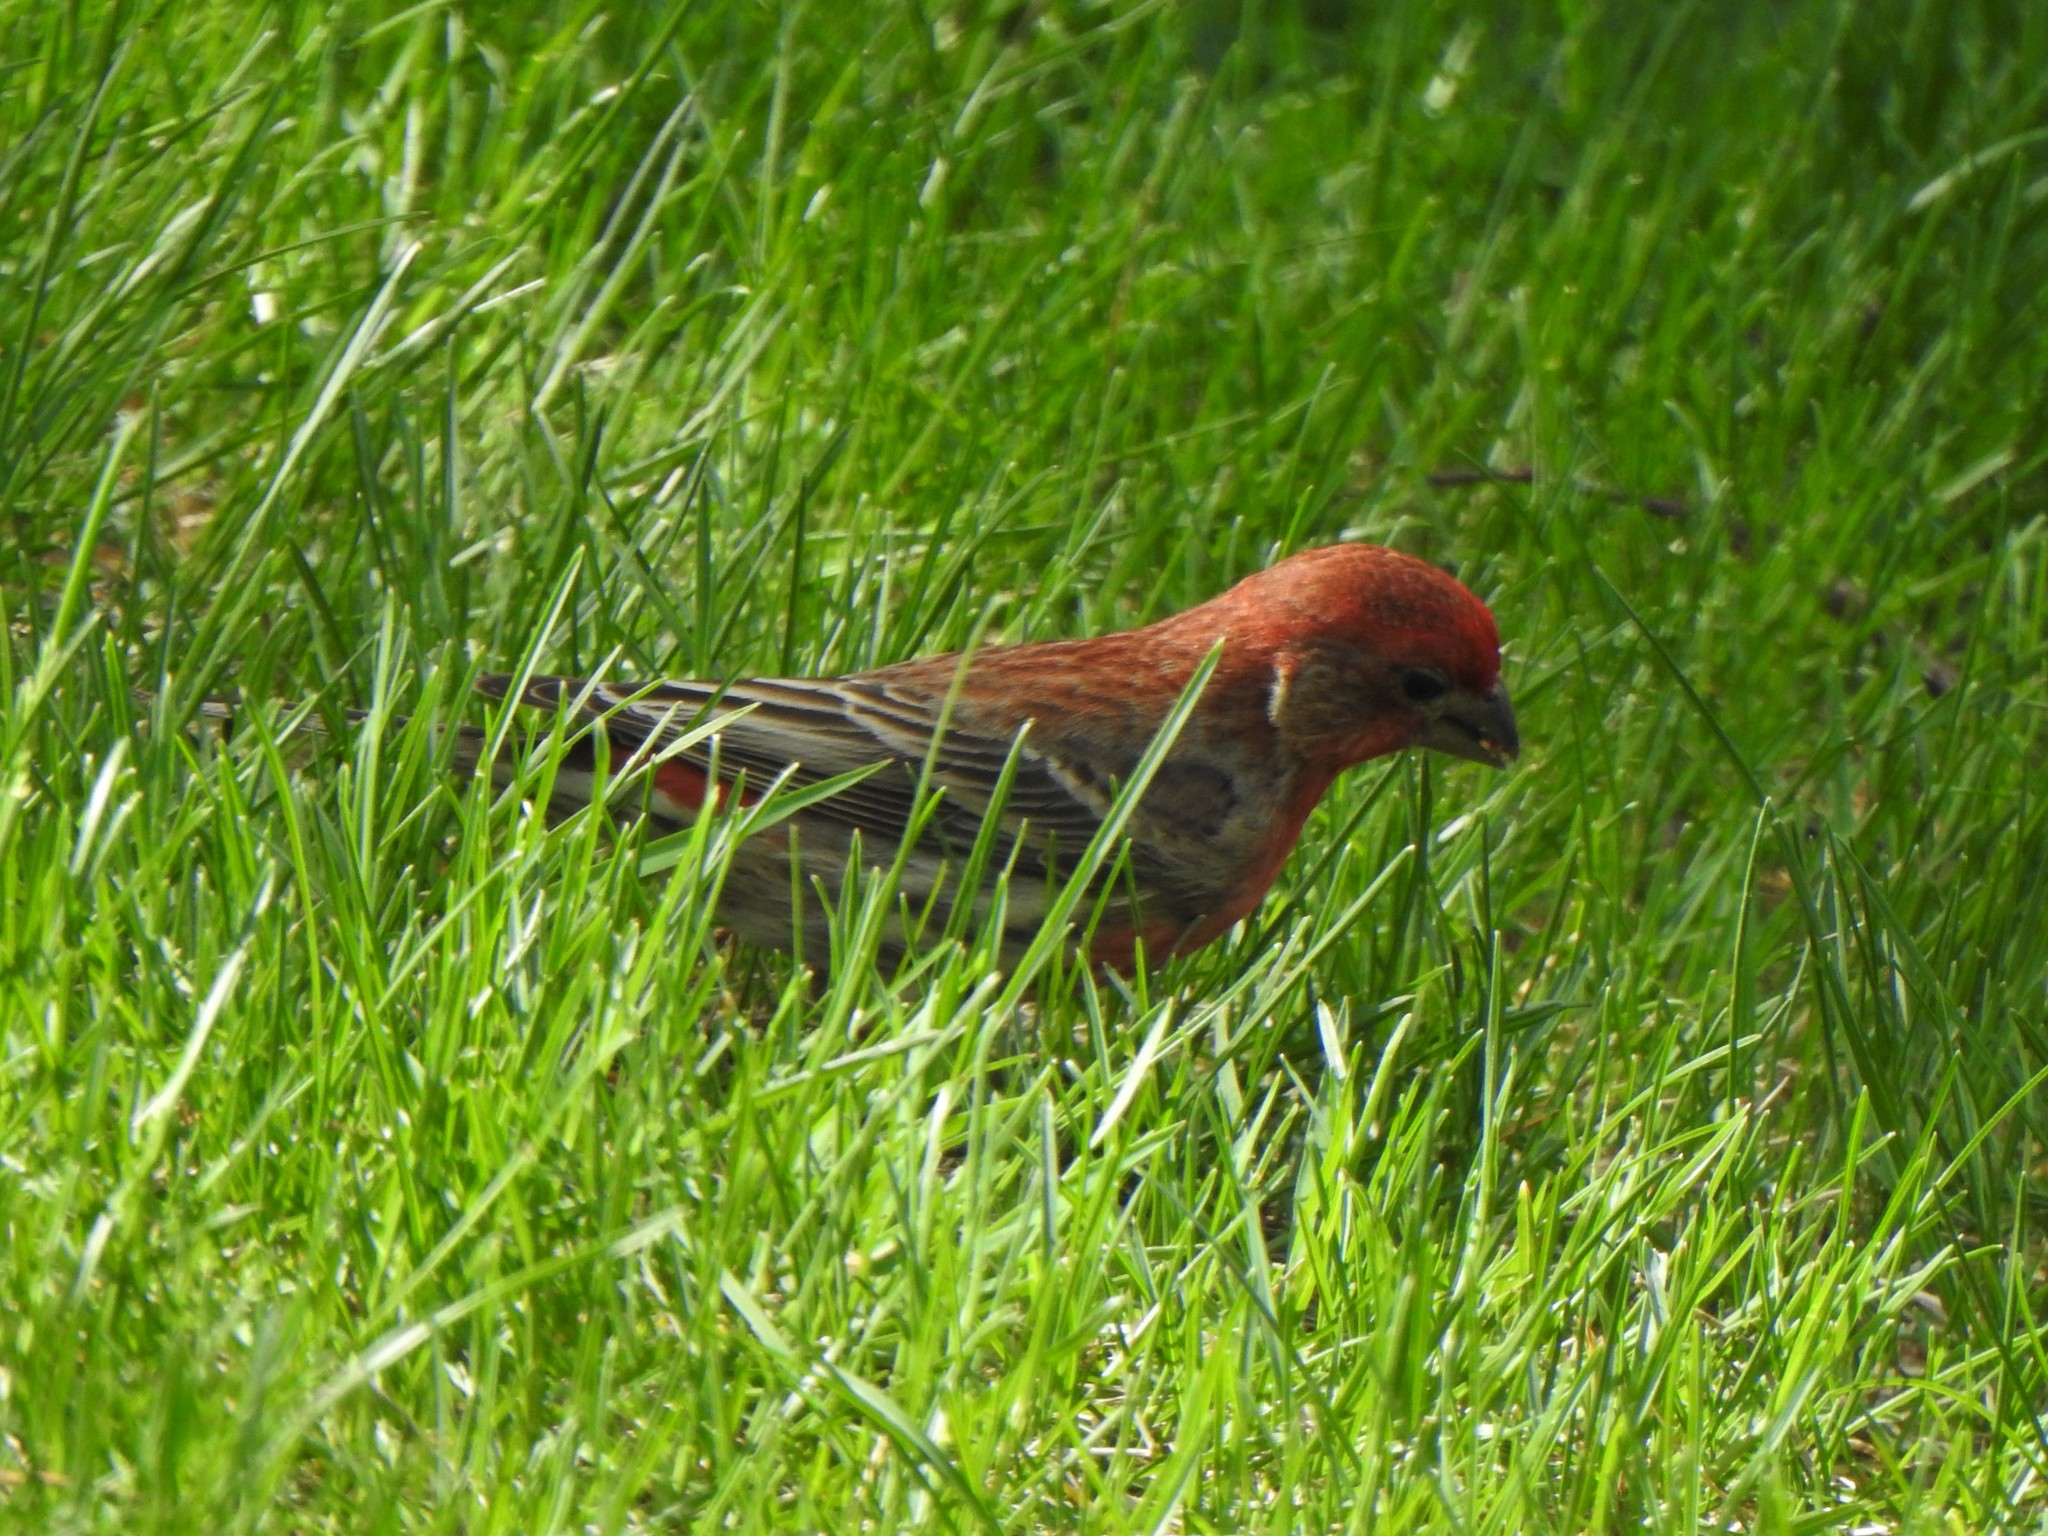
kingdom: Animalia
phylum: Chordata
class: Aves
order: Passeriformes
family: Fringillidae
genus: Haemorhous
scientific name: Haemorhous mexicanus
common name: House finch
